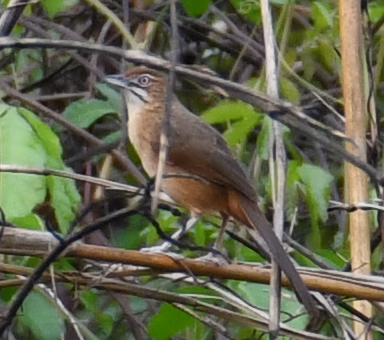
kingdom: Animalia
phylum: Chordata
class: Aves
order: Passeriformes
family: Macrosphenidae
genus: Melocichla
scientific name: Melocichla mentalis
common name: Moustached grass warbler
